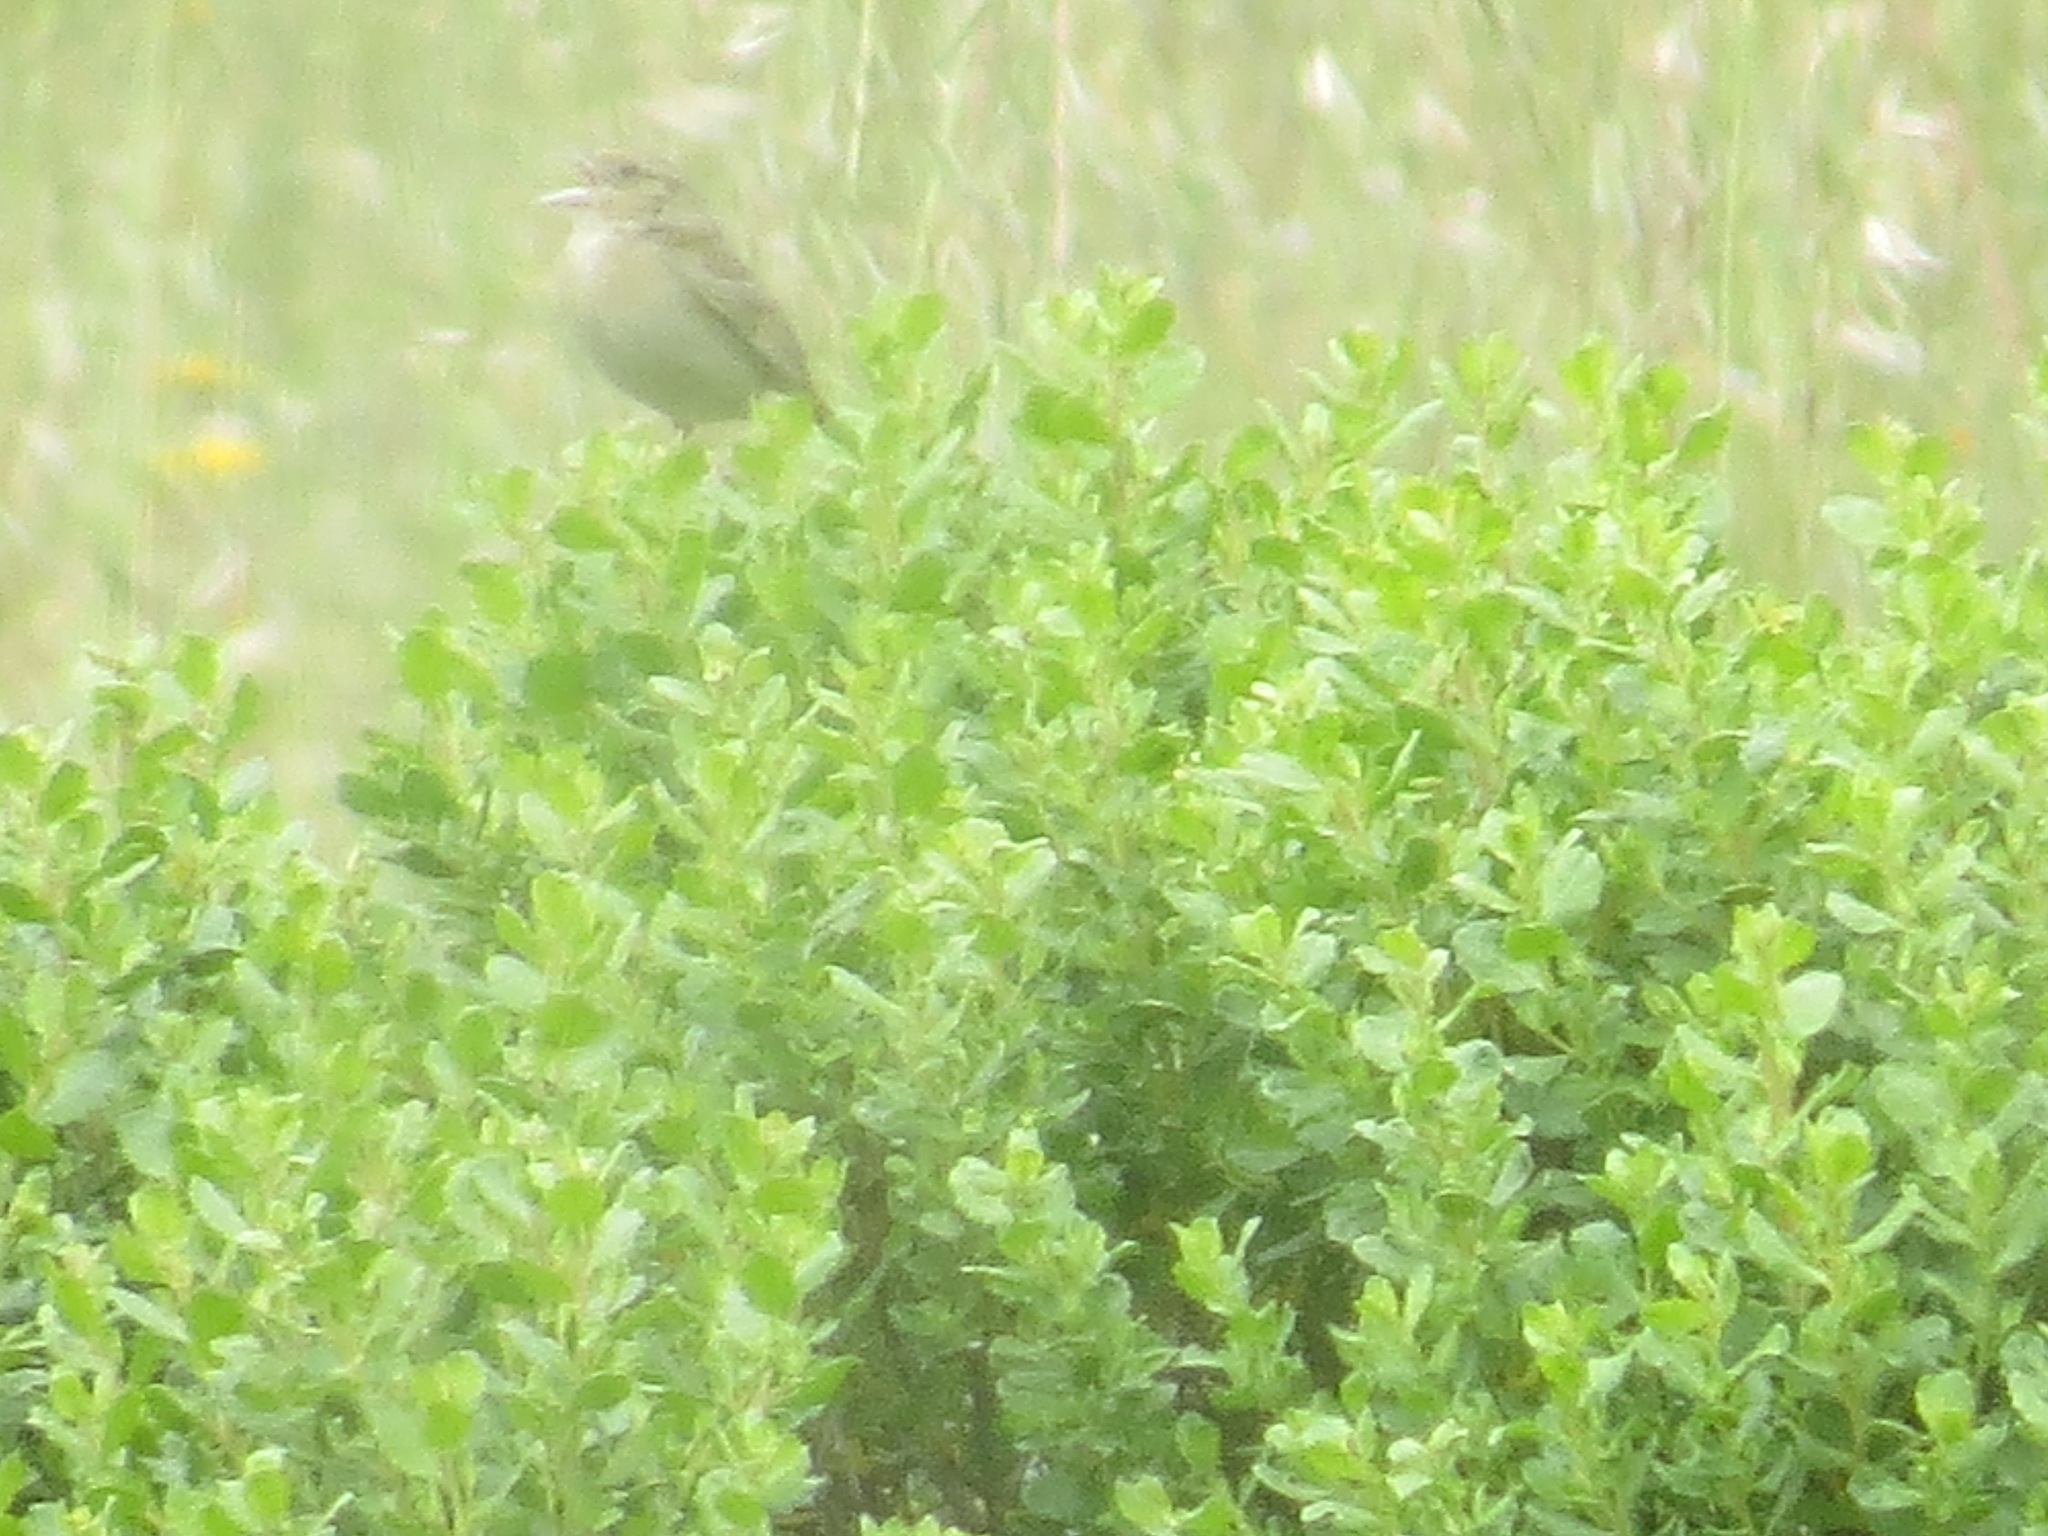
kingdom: Animalia
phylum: Chordata
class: Aves
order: Passeriformes
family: Passerellidae
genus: Ammodramus
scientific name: Ammodramus savannarum
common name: Grasshopper sparrow
